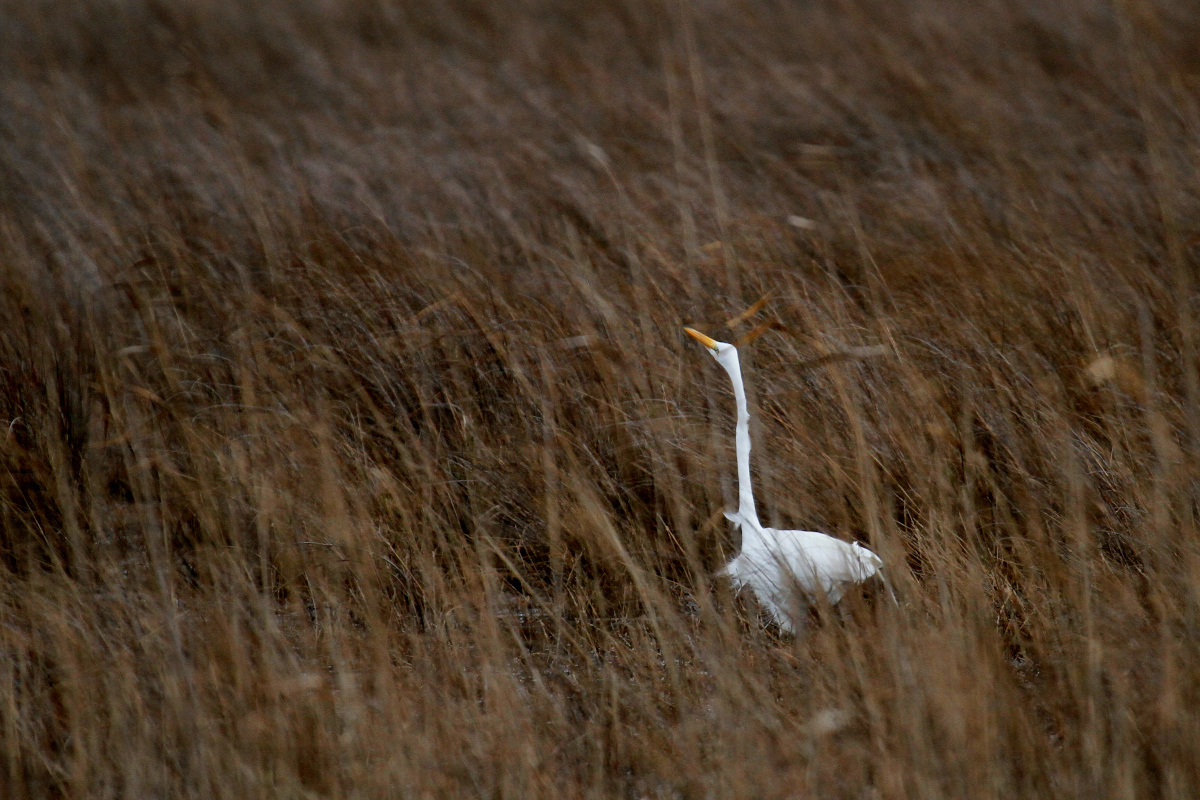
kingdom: Animalia
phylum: Chordata
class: Aves
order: Pelecaniformes
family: Ardeidae
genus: Ardea
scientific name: Ardea alba
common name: Great egret
